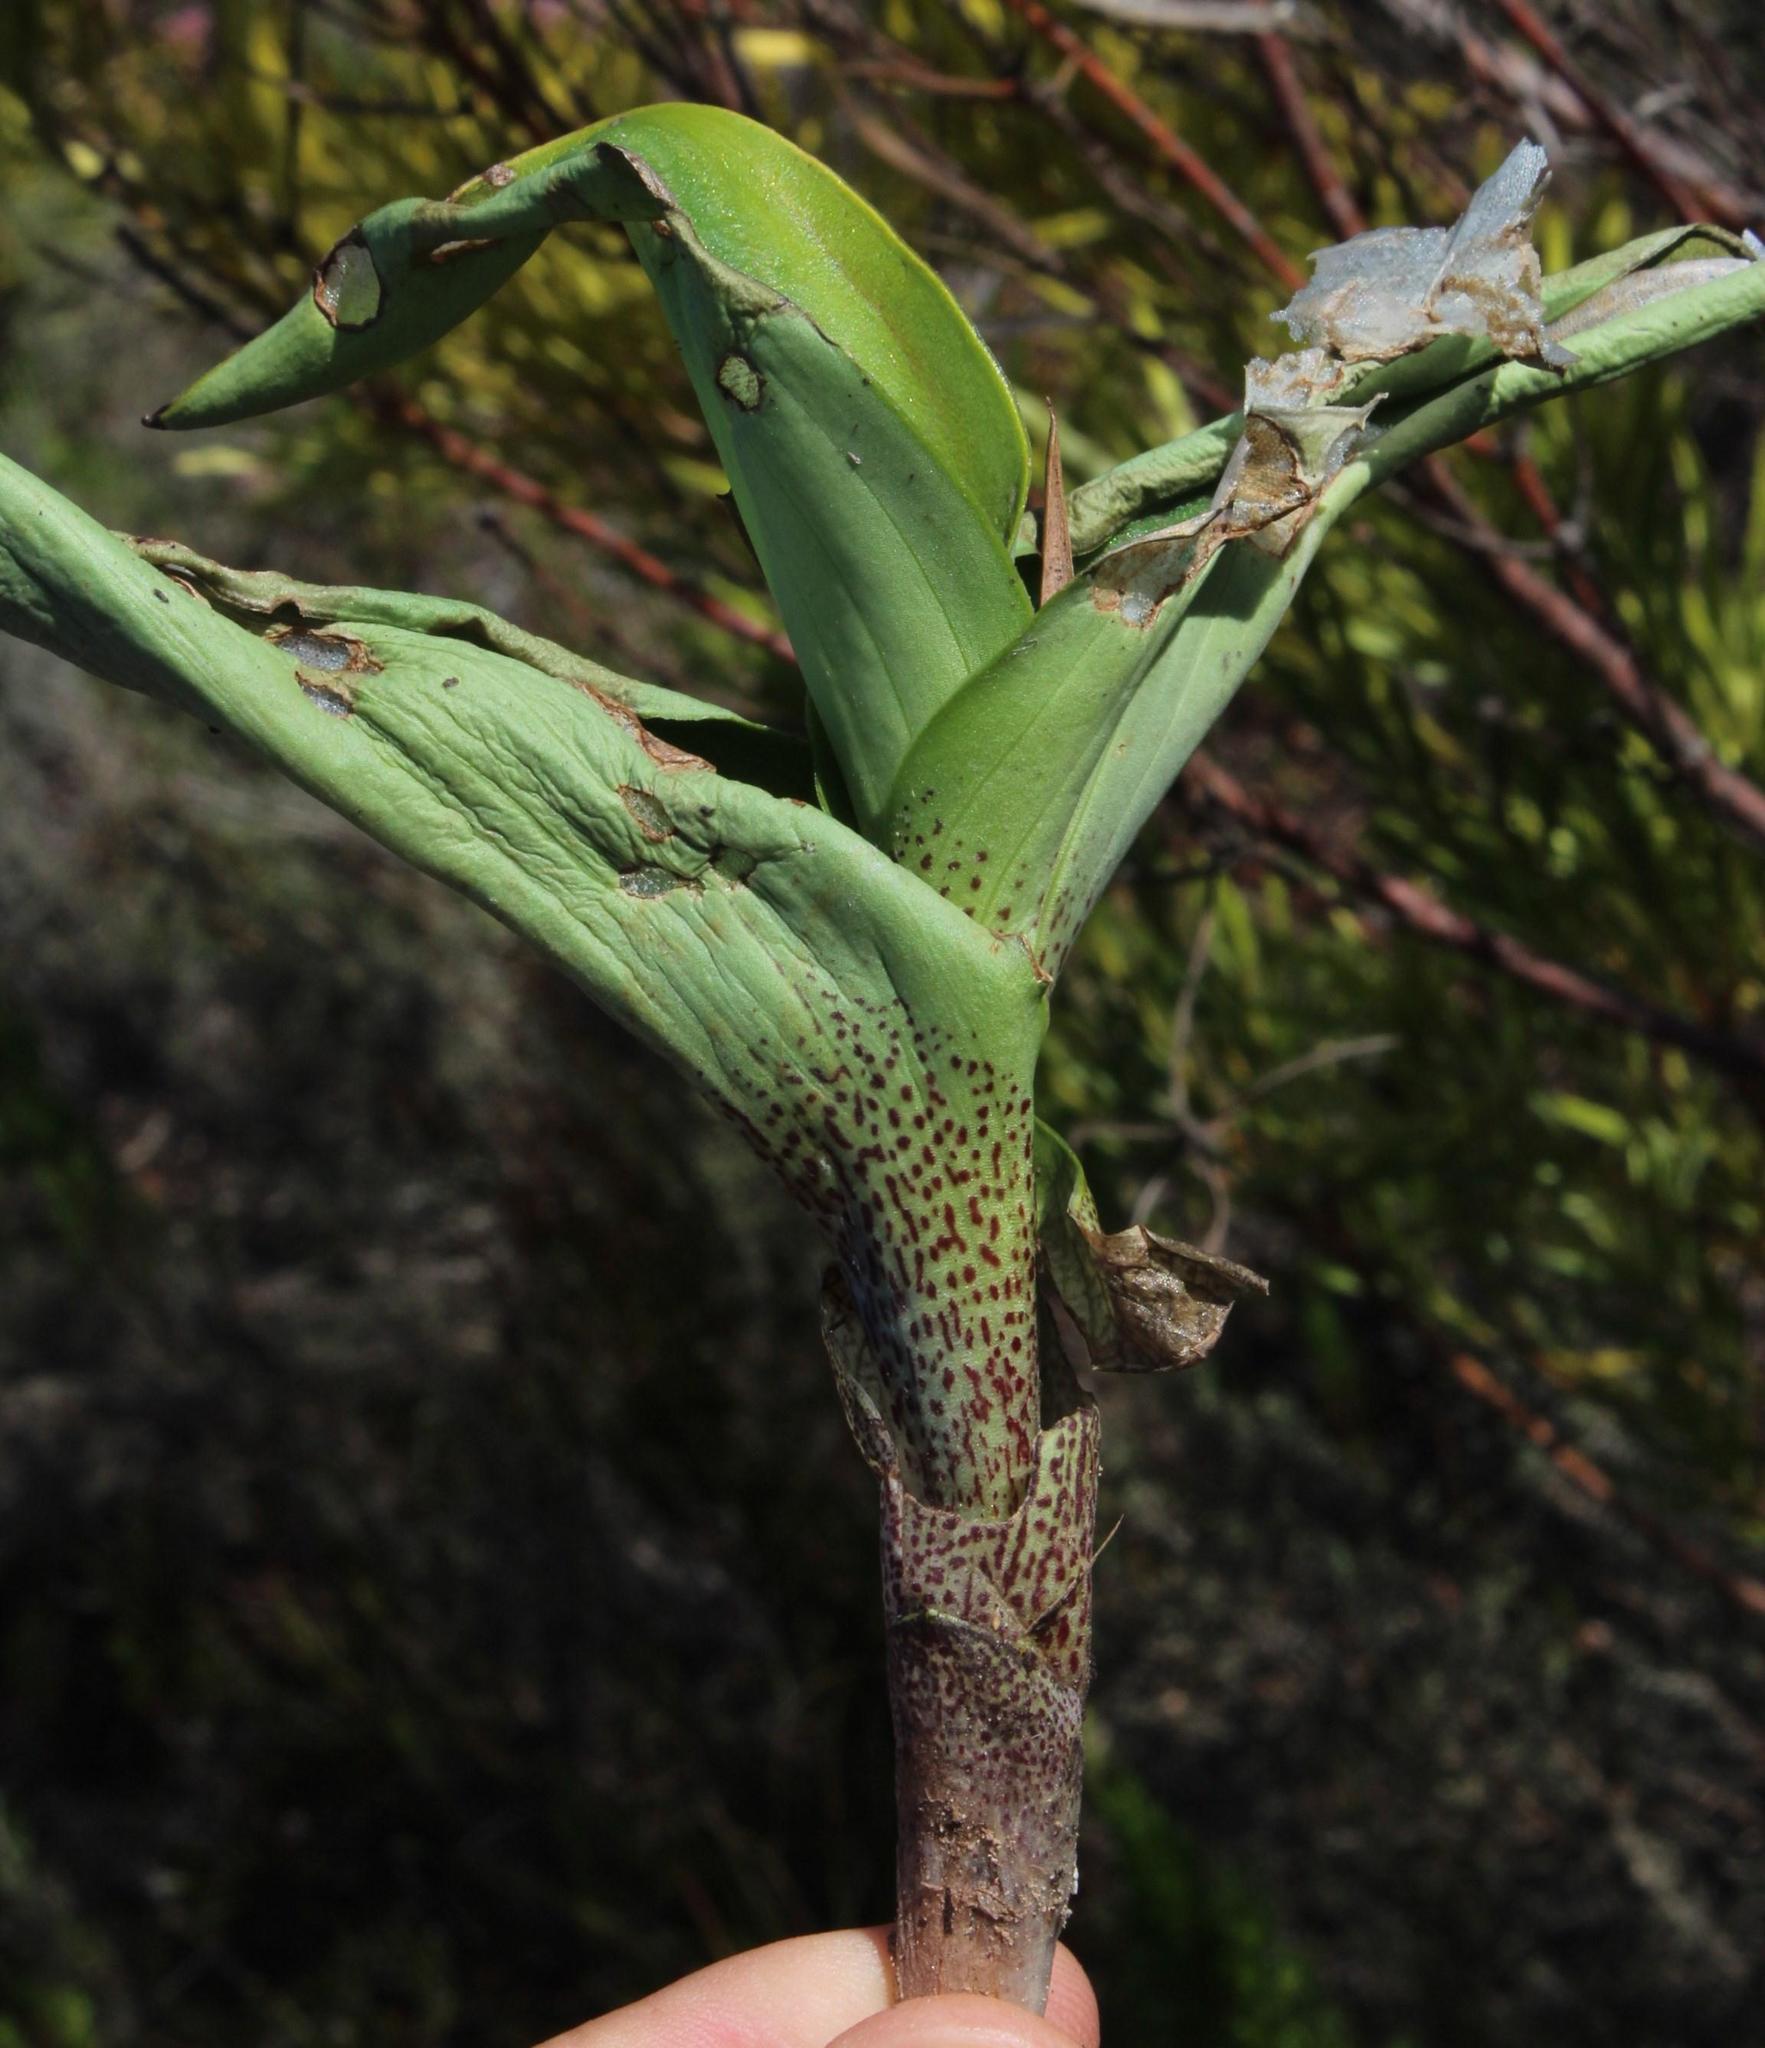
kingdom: Plantae
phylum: Tracheophyta
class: Liliopsida
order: Asparagales
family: Orchidaceae
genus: Disa
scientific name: Disa cornuta
